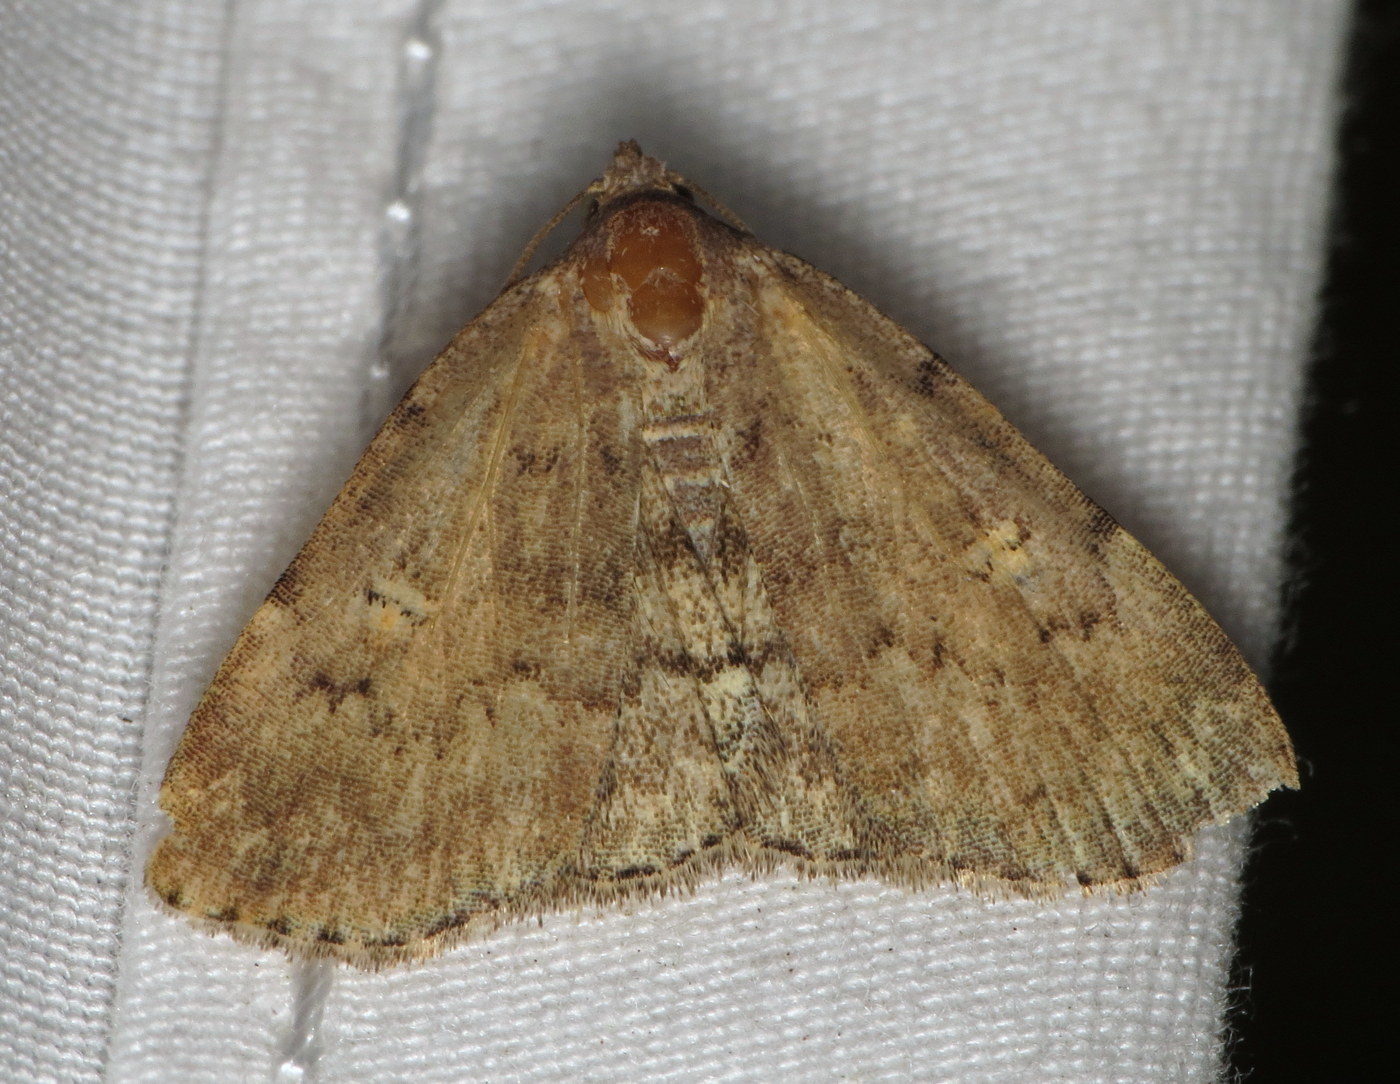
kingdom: Animalia
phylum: Arthropoda
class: Insecta
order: Lepidoptera
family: Erebidae
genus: Idia
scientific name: Idia aemula
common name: Common idia moth
